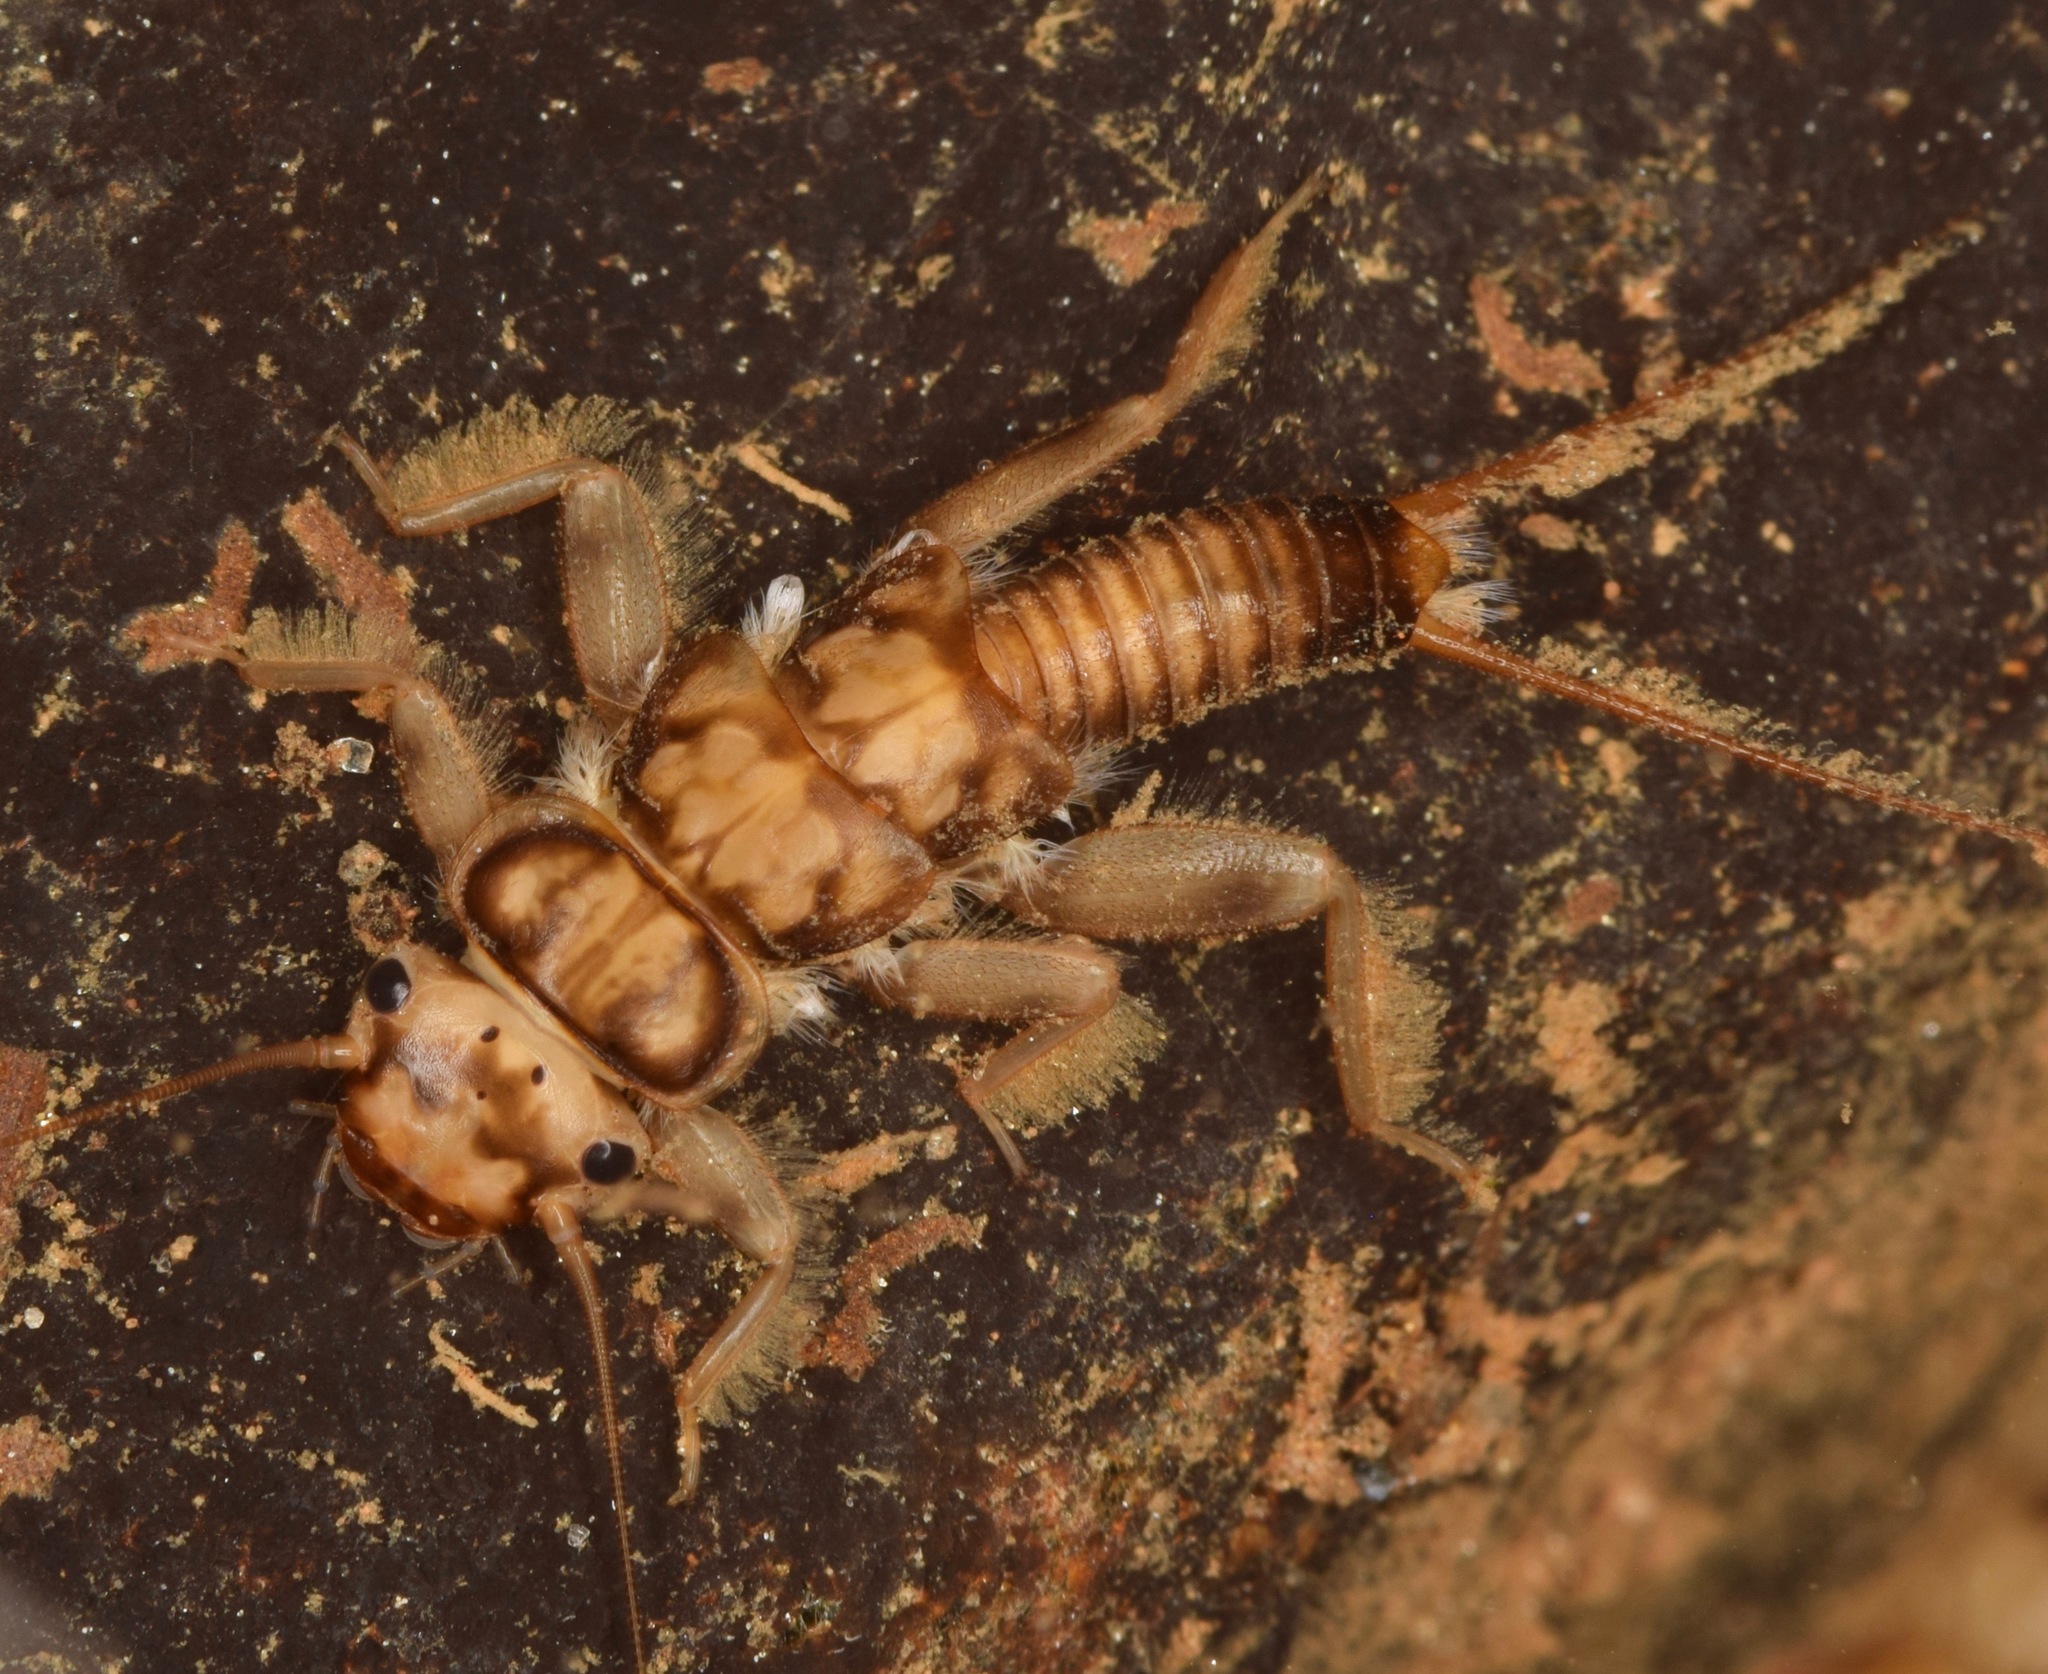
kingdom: Animalia
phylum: Arthropoda
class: Insecta
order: Plecoptera
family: Perlidae
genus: Eccoptura
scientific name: Eccoptura xanthenes
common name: Yellow stone
